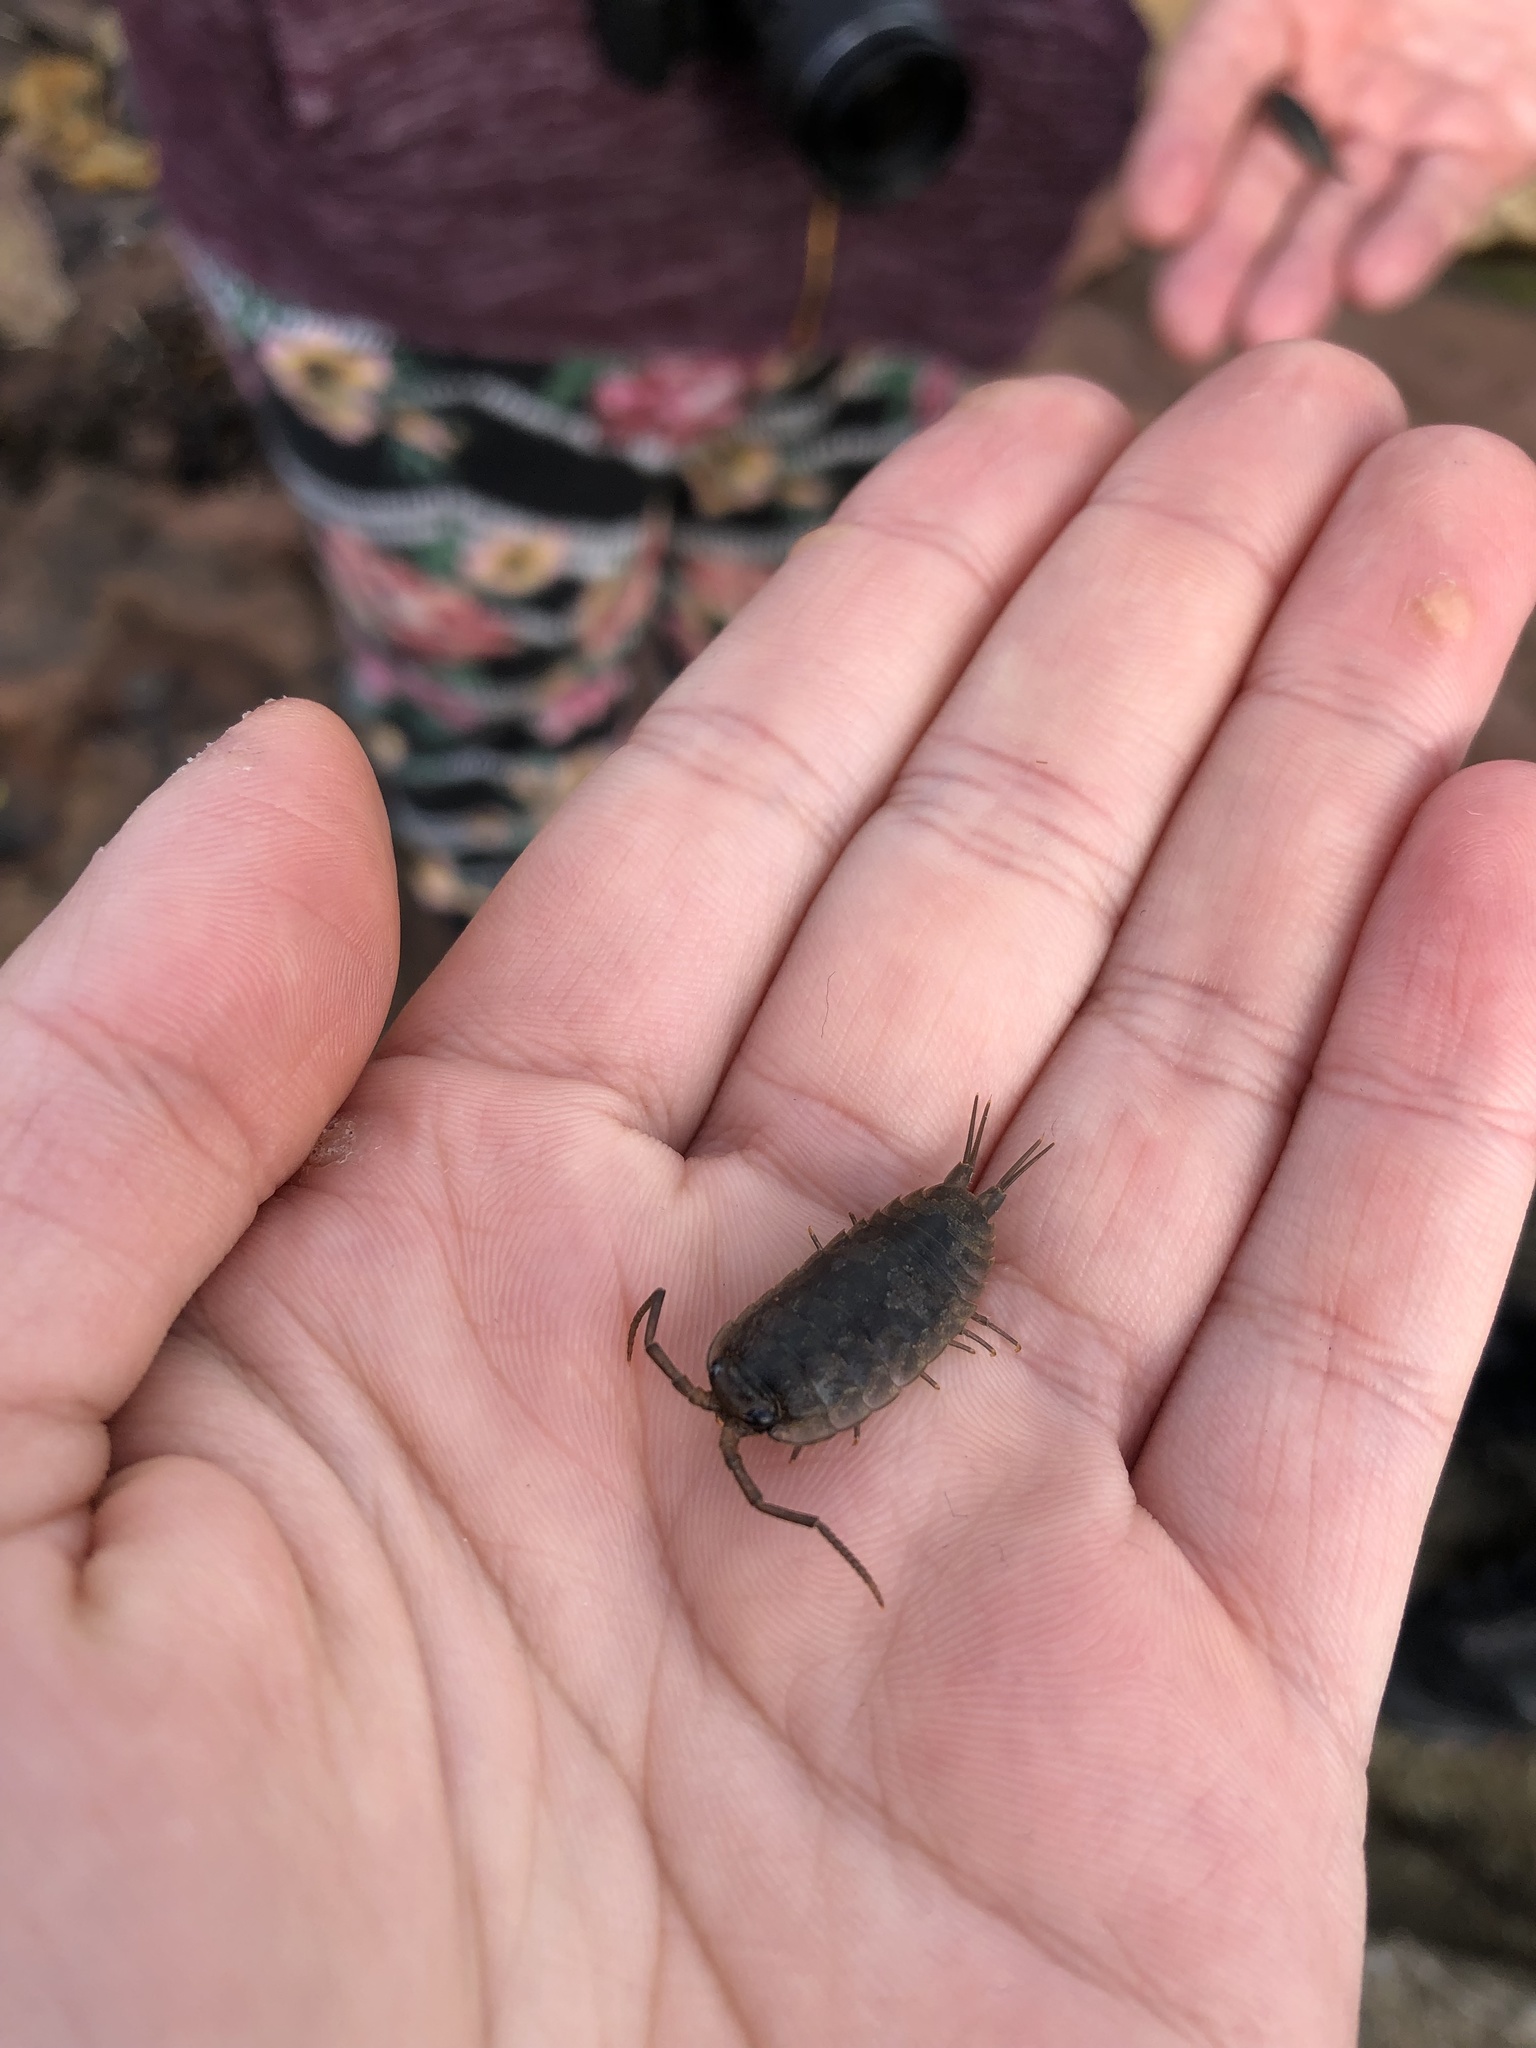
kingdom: Animalia
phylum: Arthropoda
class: Malacostraca
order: Isopoda
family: Ligiidae
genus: Ligia
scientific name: Ligia oceanica
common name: Sea slater
